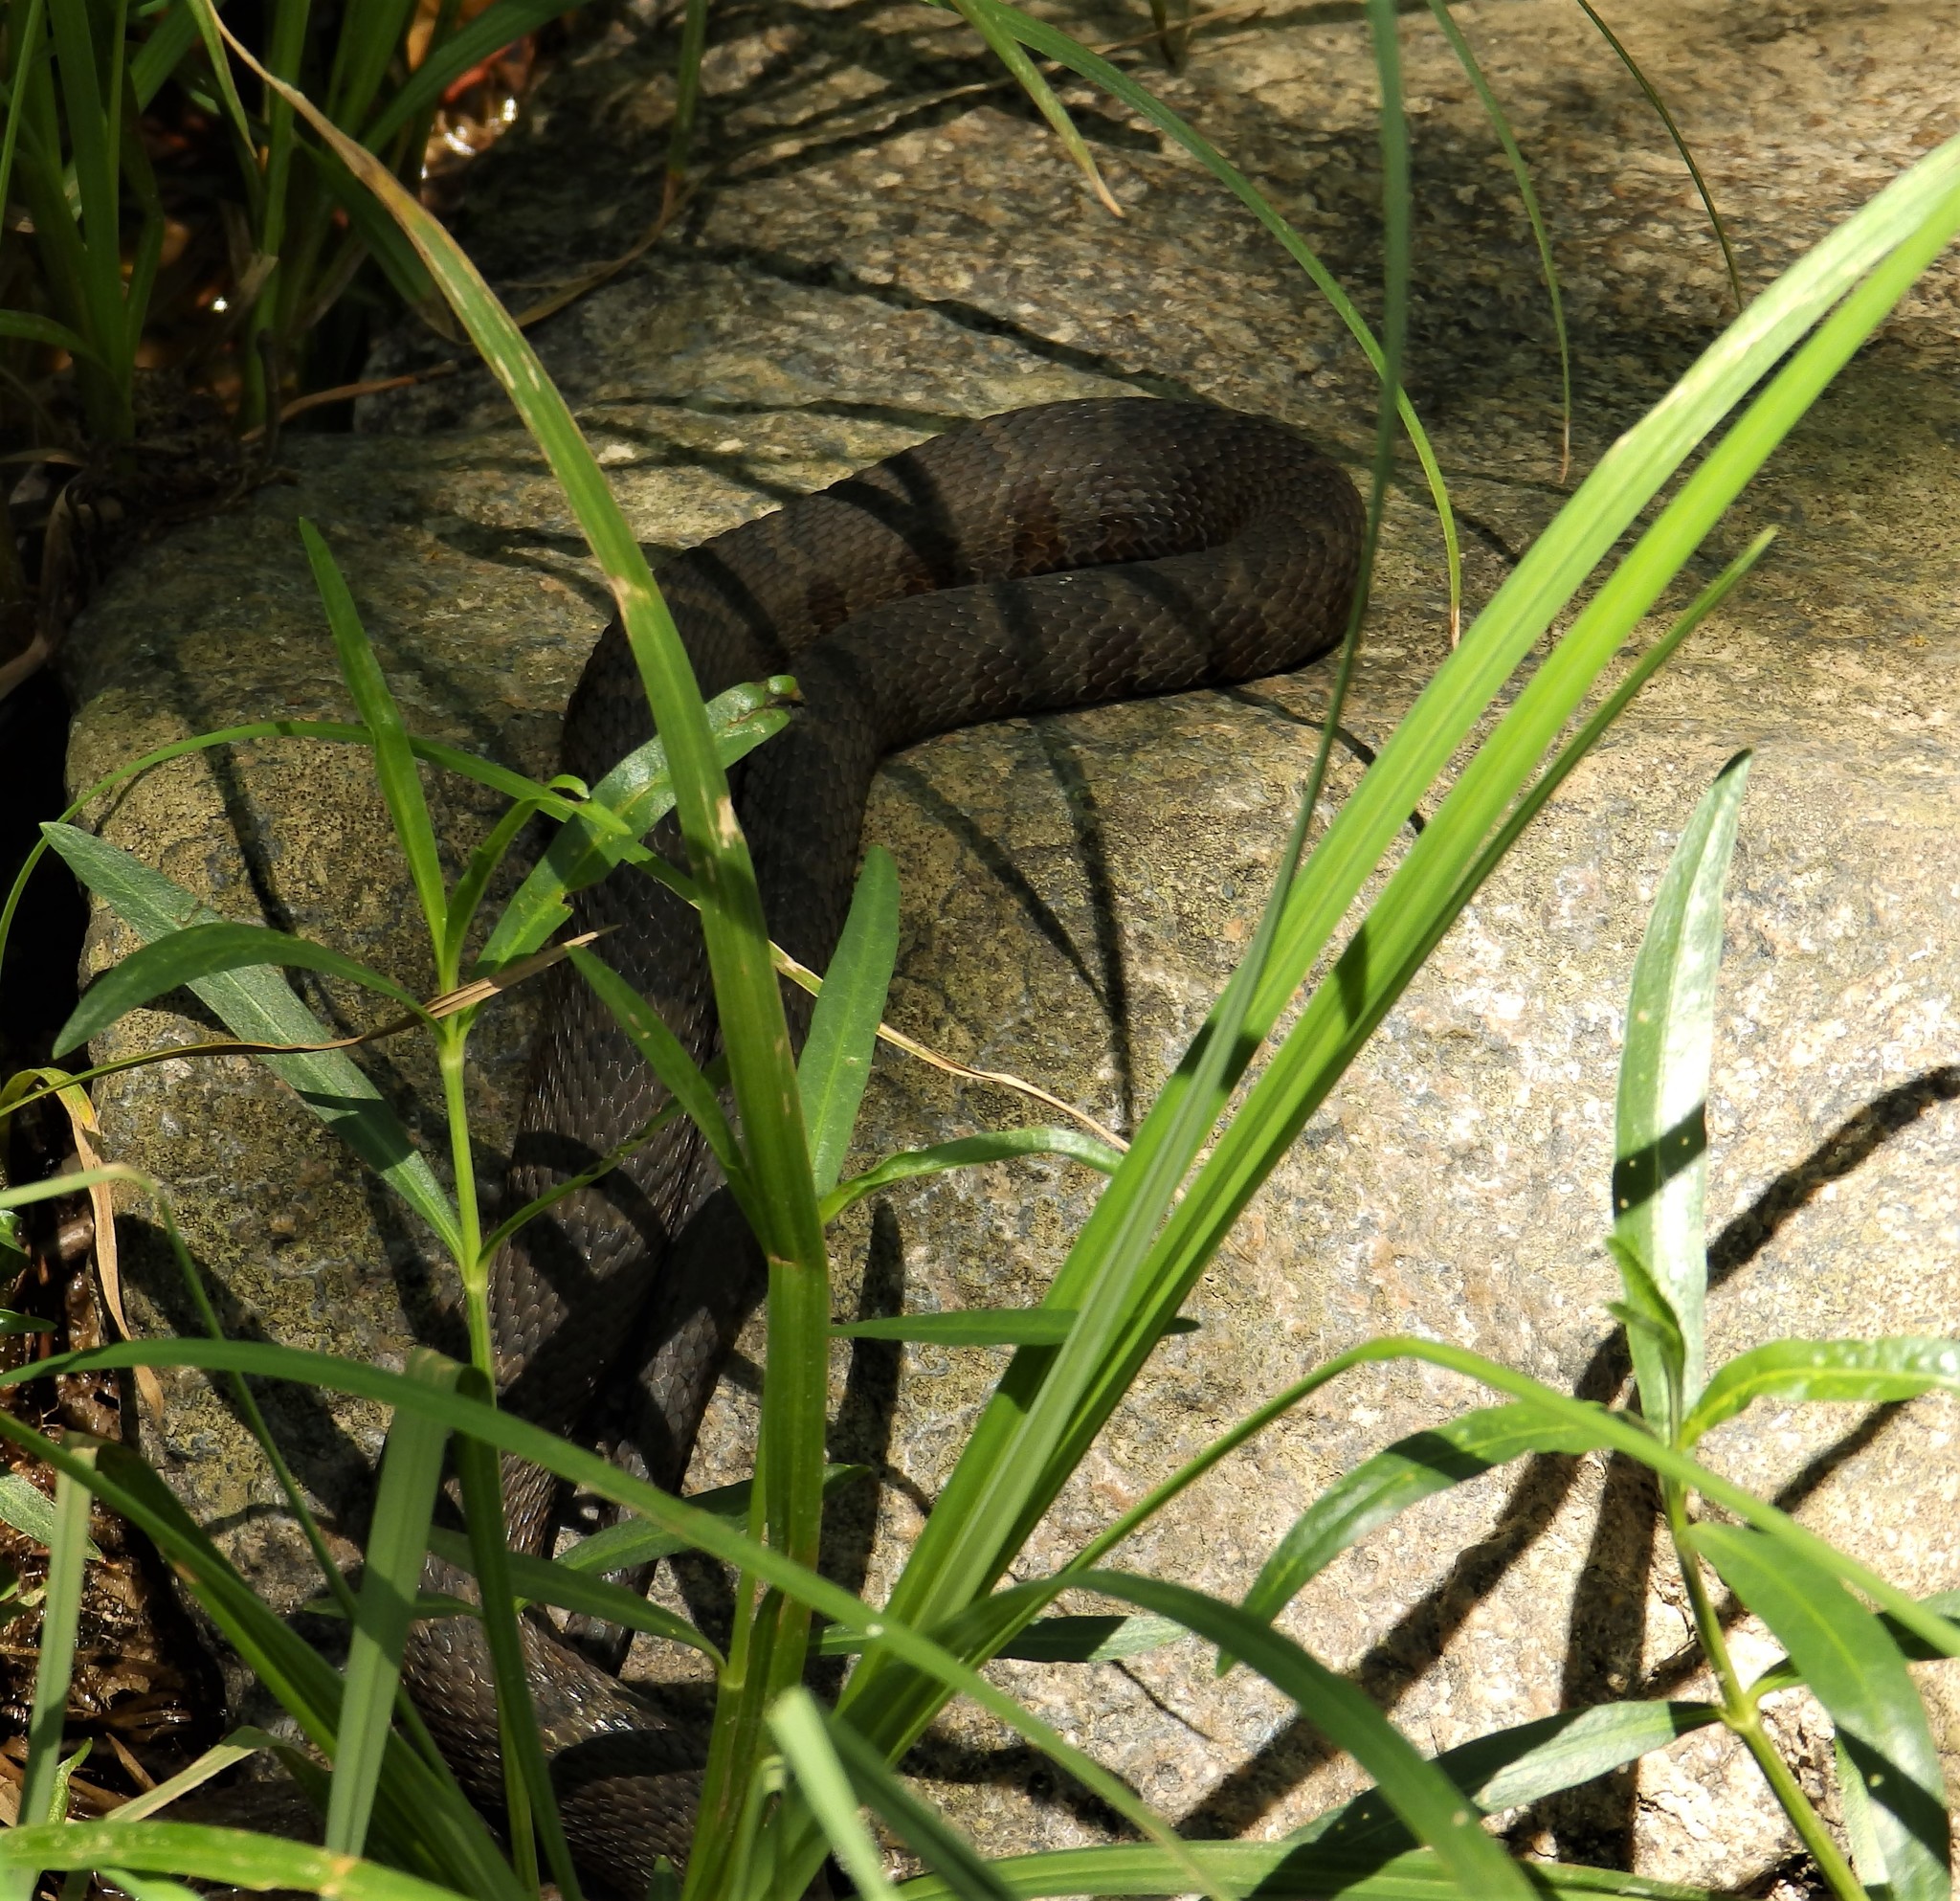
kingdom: Animalia
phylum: Chordata
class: Squamata
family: Colubridae
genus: Nerodia
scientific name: Nerodia sipedon
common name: Northern water snake
